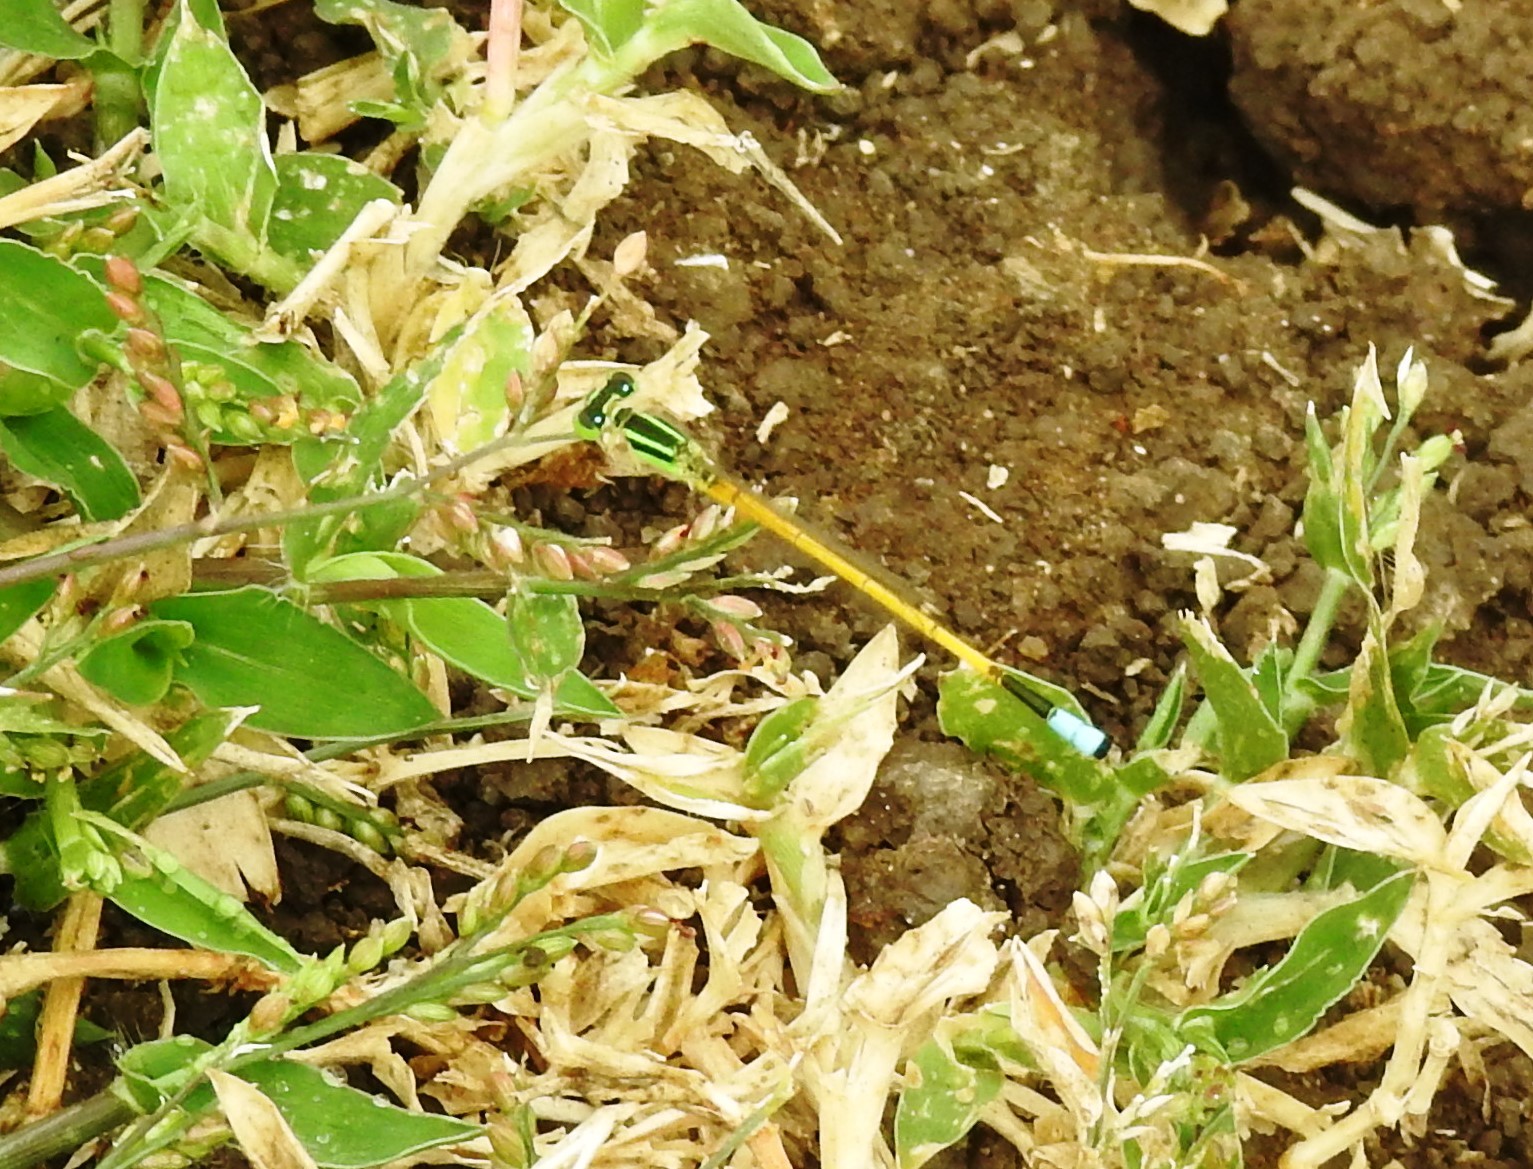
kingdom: Animalia
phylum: Arthropoda
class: Insecta
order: Odonata
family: Coenagrionidae
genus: Ischnura
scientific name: Ischnura rubilio
